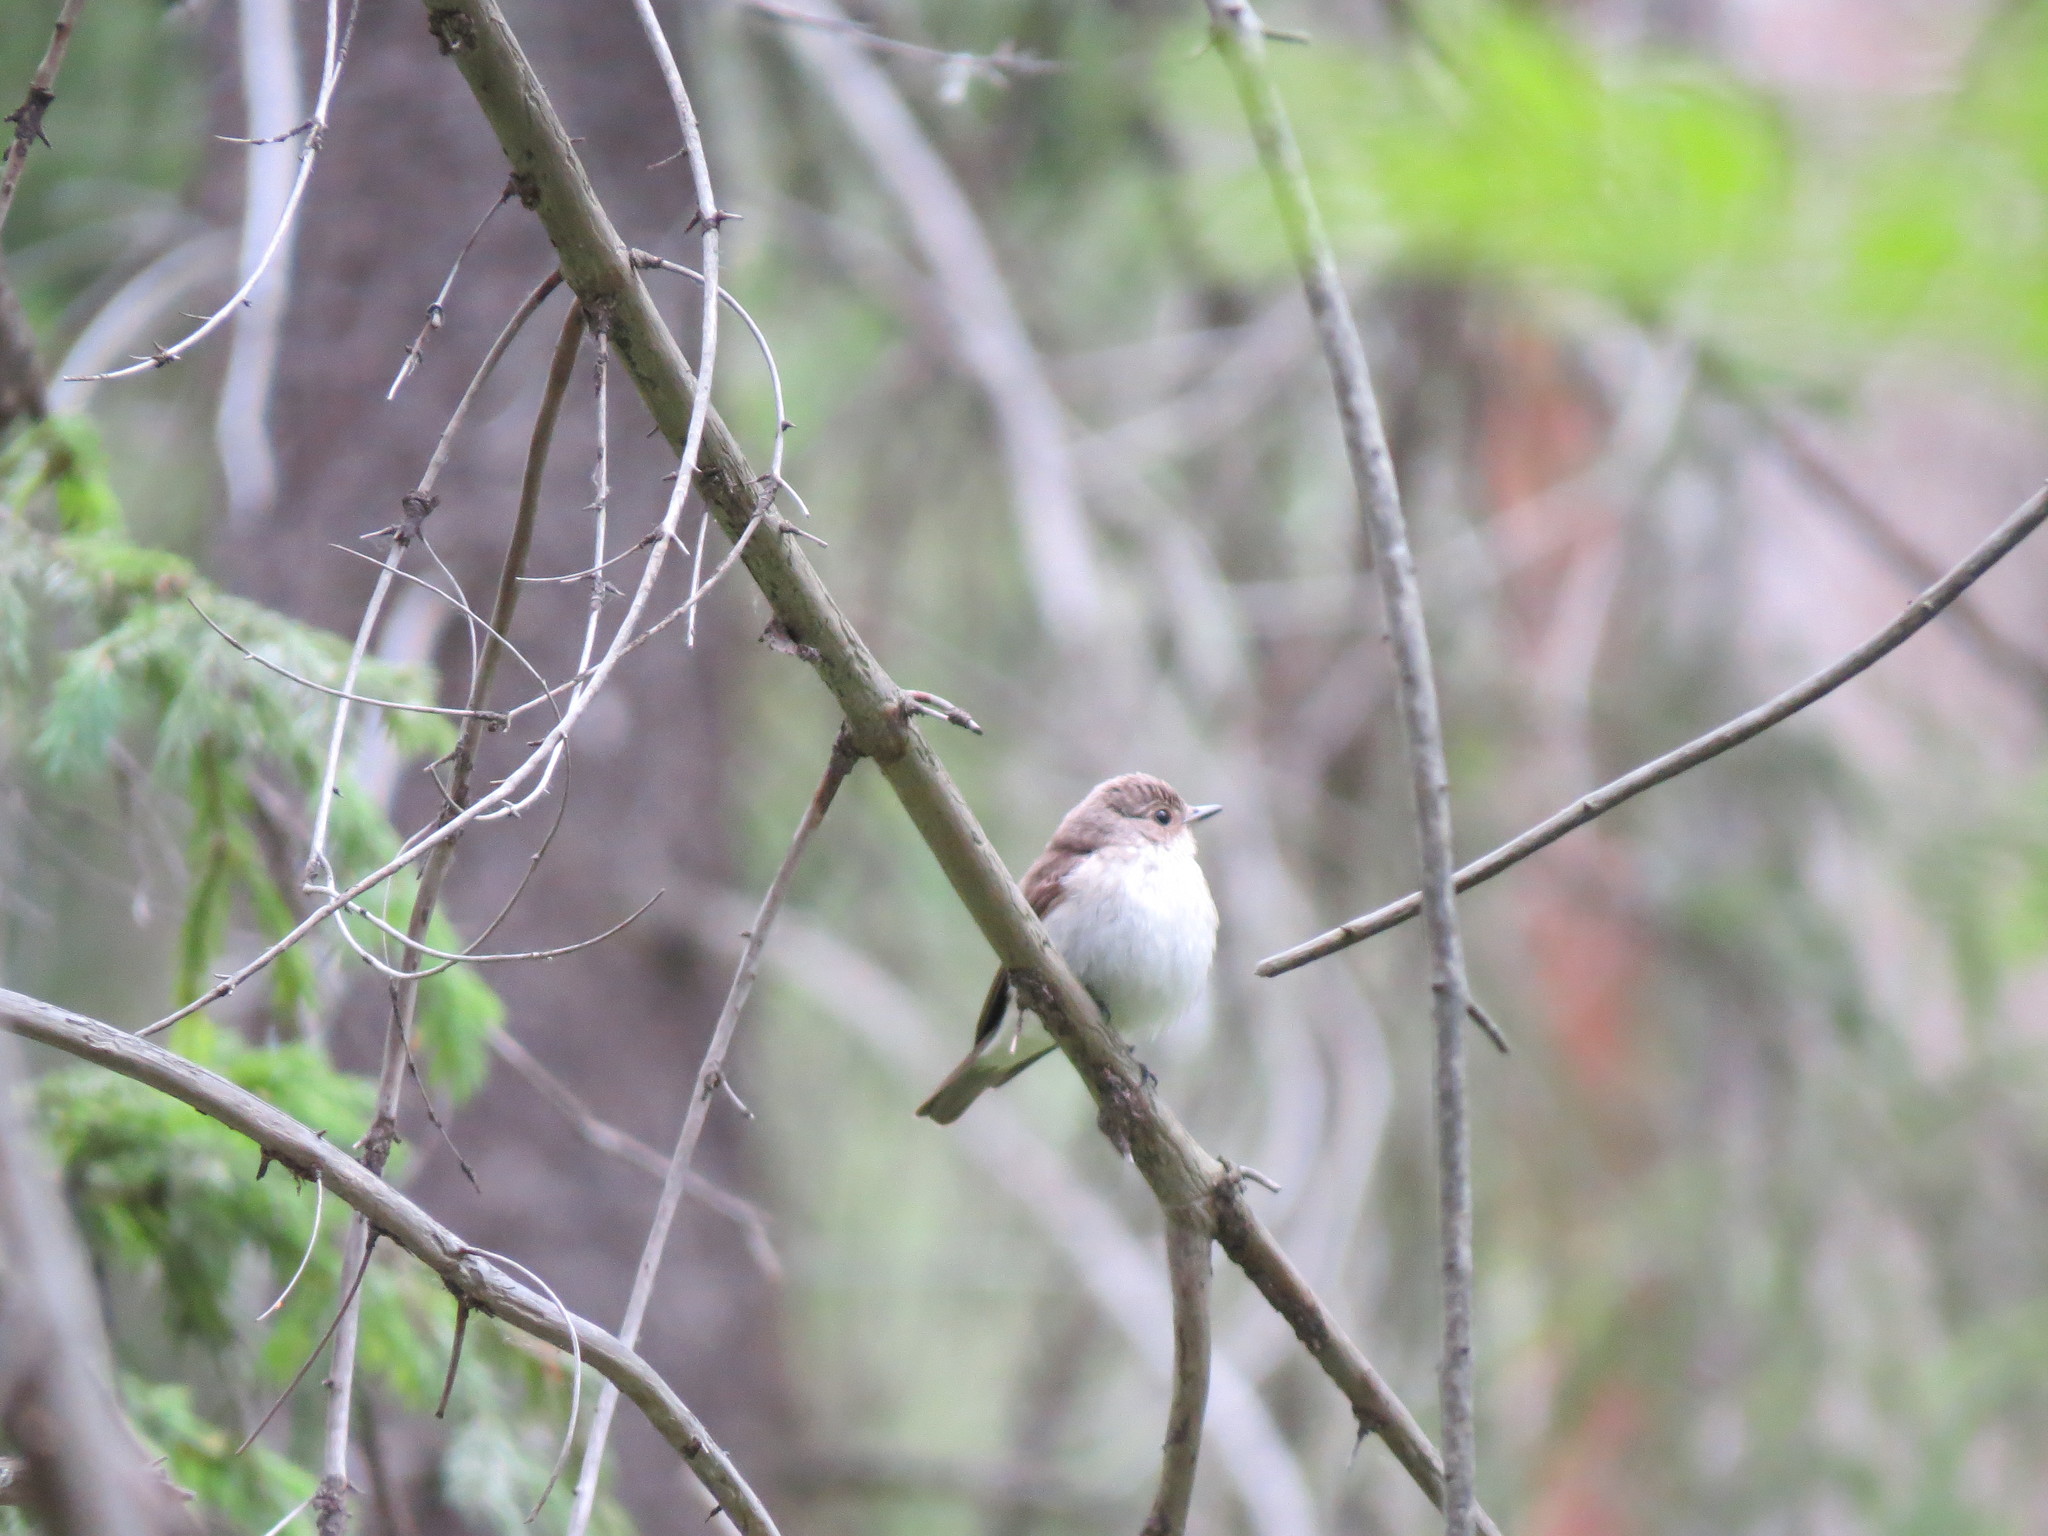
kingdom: Animalia
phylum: Chordata
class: Aves
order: Passeriformes
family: Muscicapidae
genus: Ficedula
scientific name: Ficedula hypoleuca
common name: European pied flycatcher
